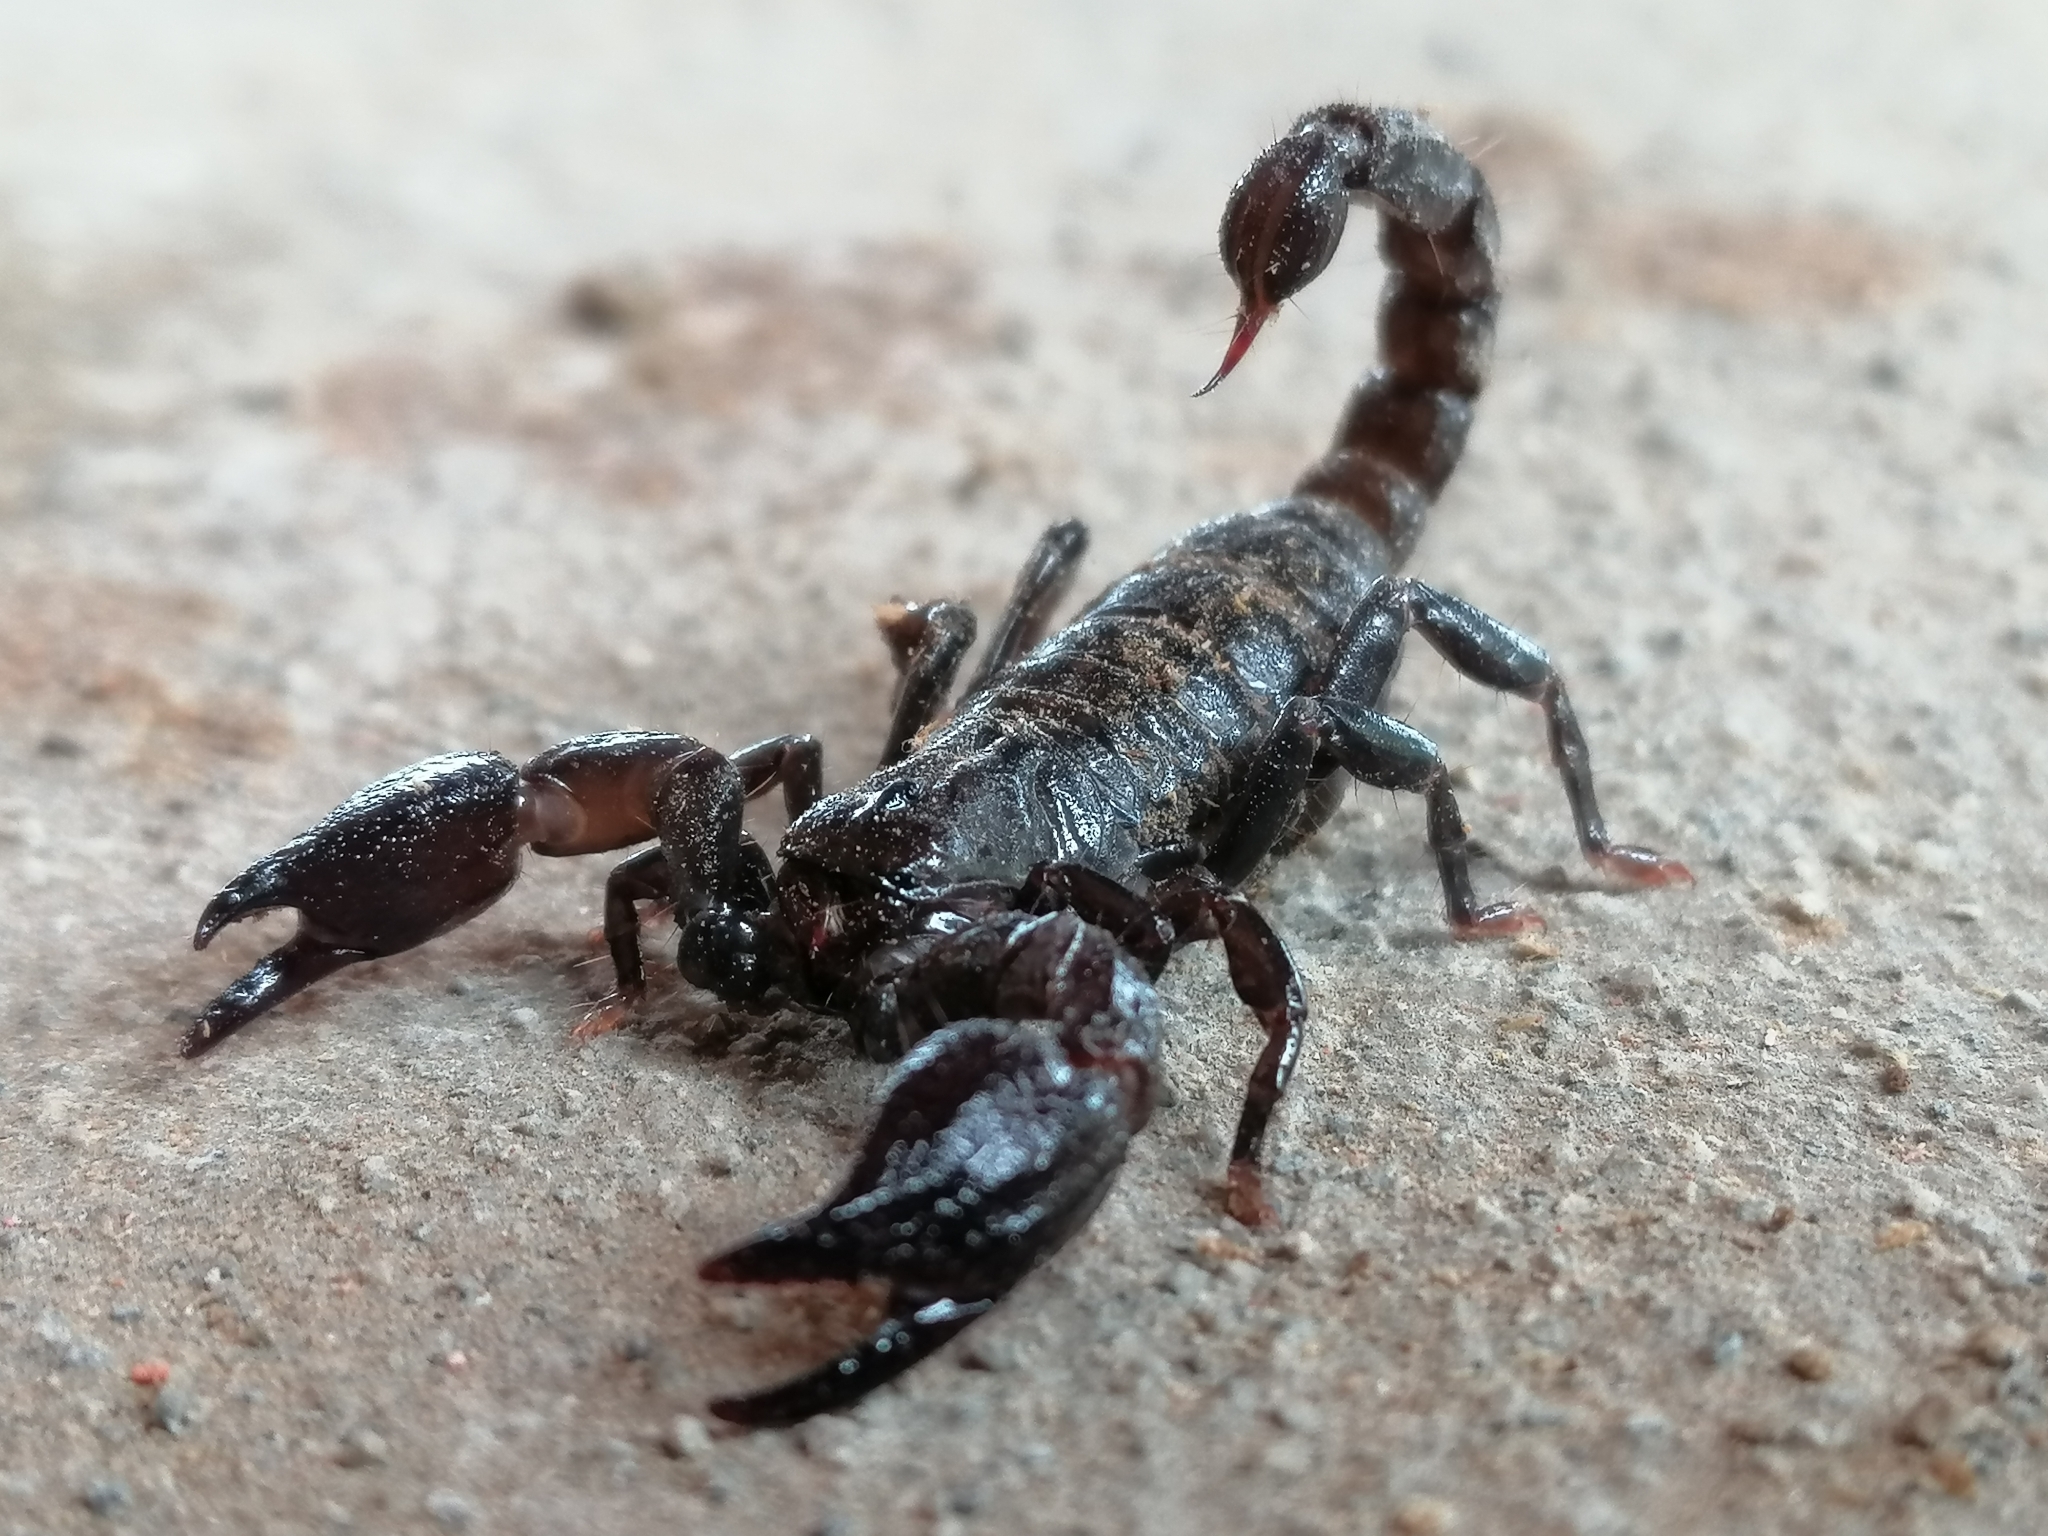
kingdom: Animalia
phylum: Arthropoda
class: Arachnida
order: Scorpiones
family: Chactidae
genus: Teuthraustes
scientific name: Teuthraustes atramentarius
